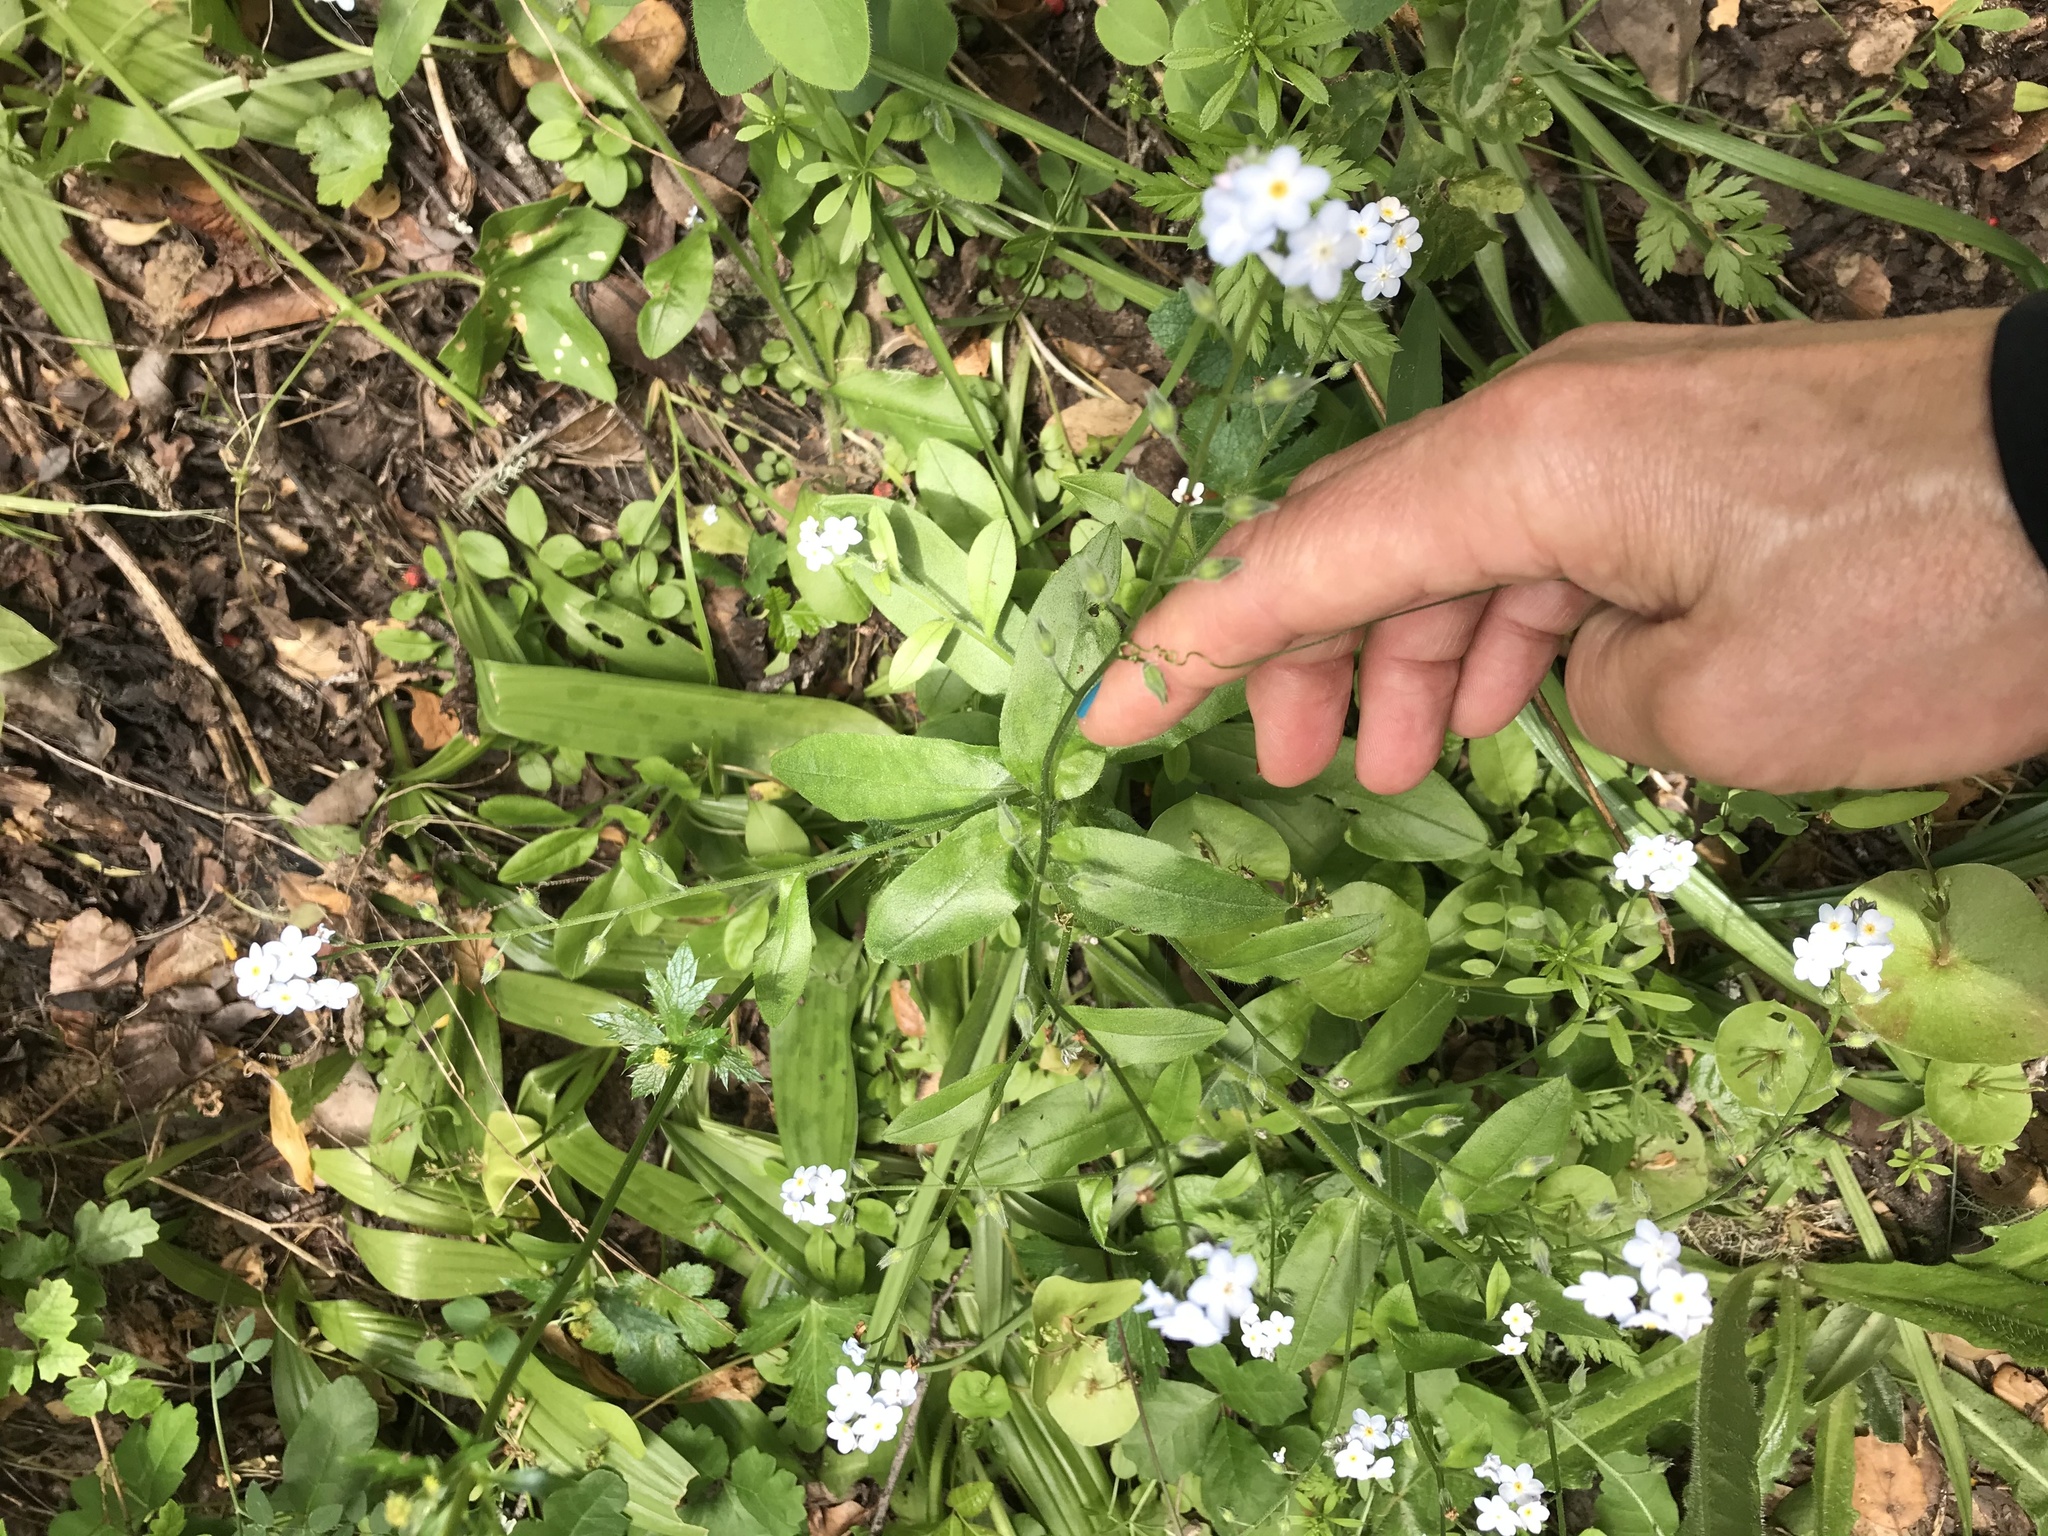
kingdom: Plantae
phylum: Tracheophyta
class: Magnoliopsida
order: Boraginales
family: Boraginaceae
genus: Myosotis
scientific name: Myosotis latifolia
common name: Broadleaf forget-me-not
